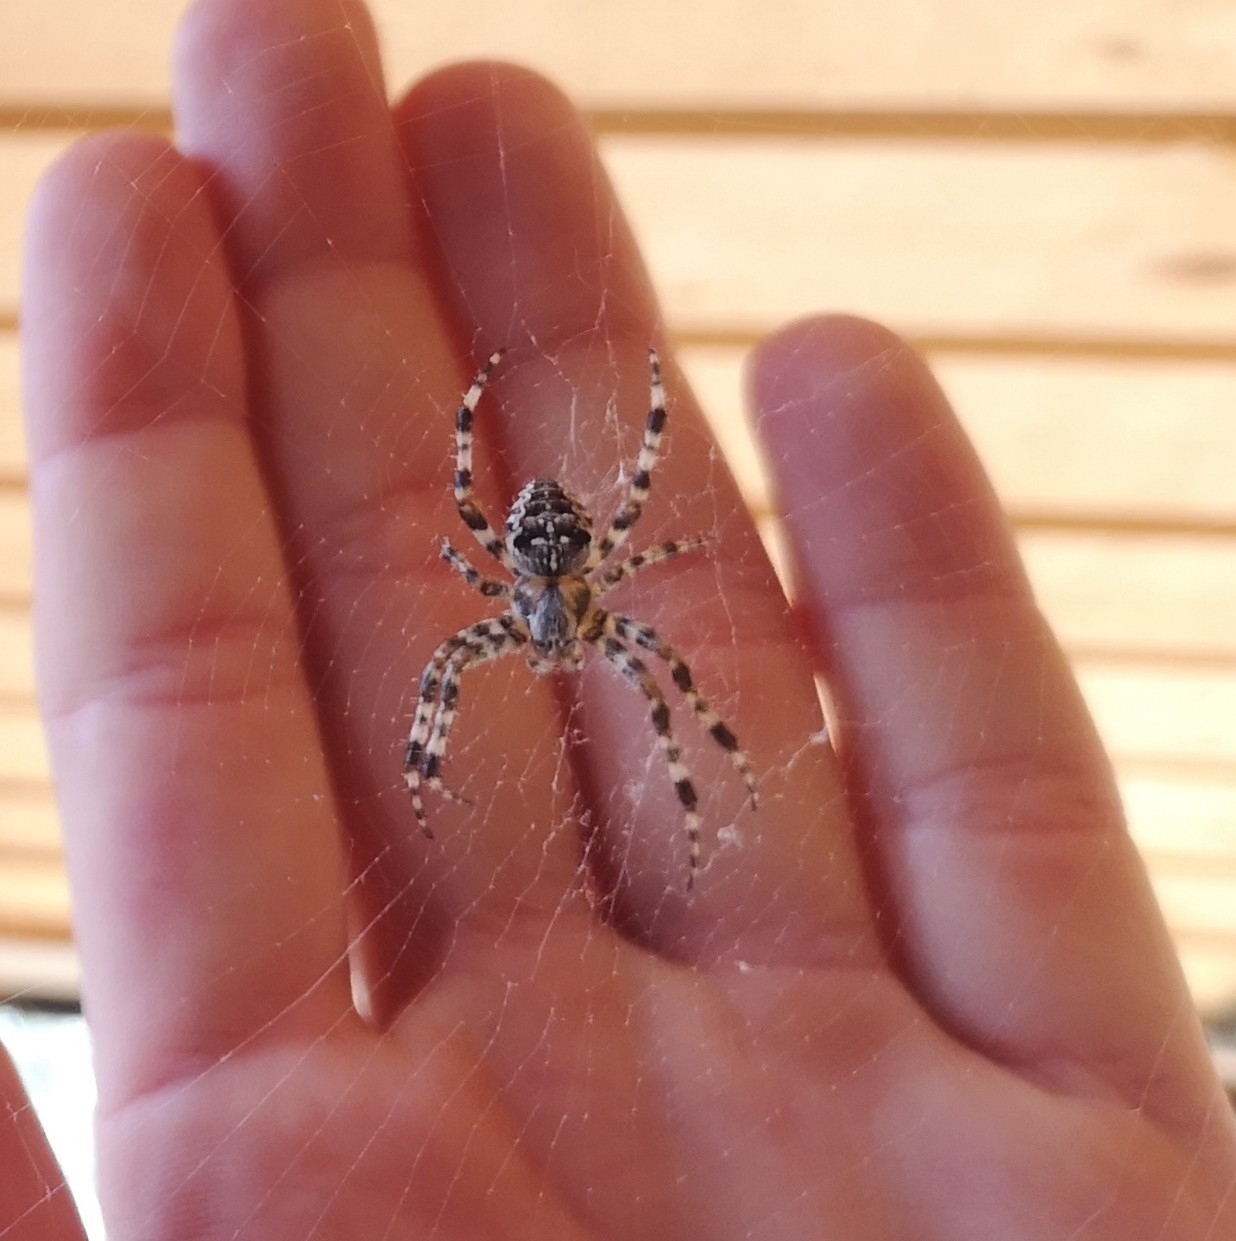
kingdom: Animalia
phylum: Arthropoda
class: Arachnida
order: Araneae
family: Araneidae
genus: Araneus
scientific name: Araneus diadematus
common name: Cross orbweaver
